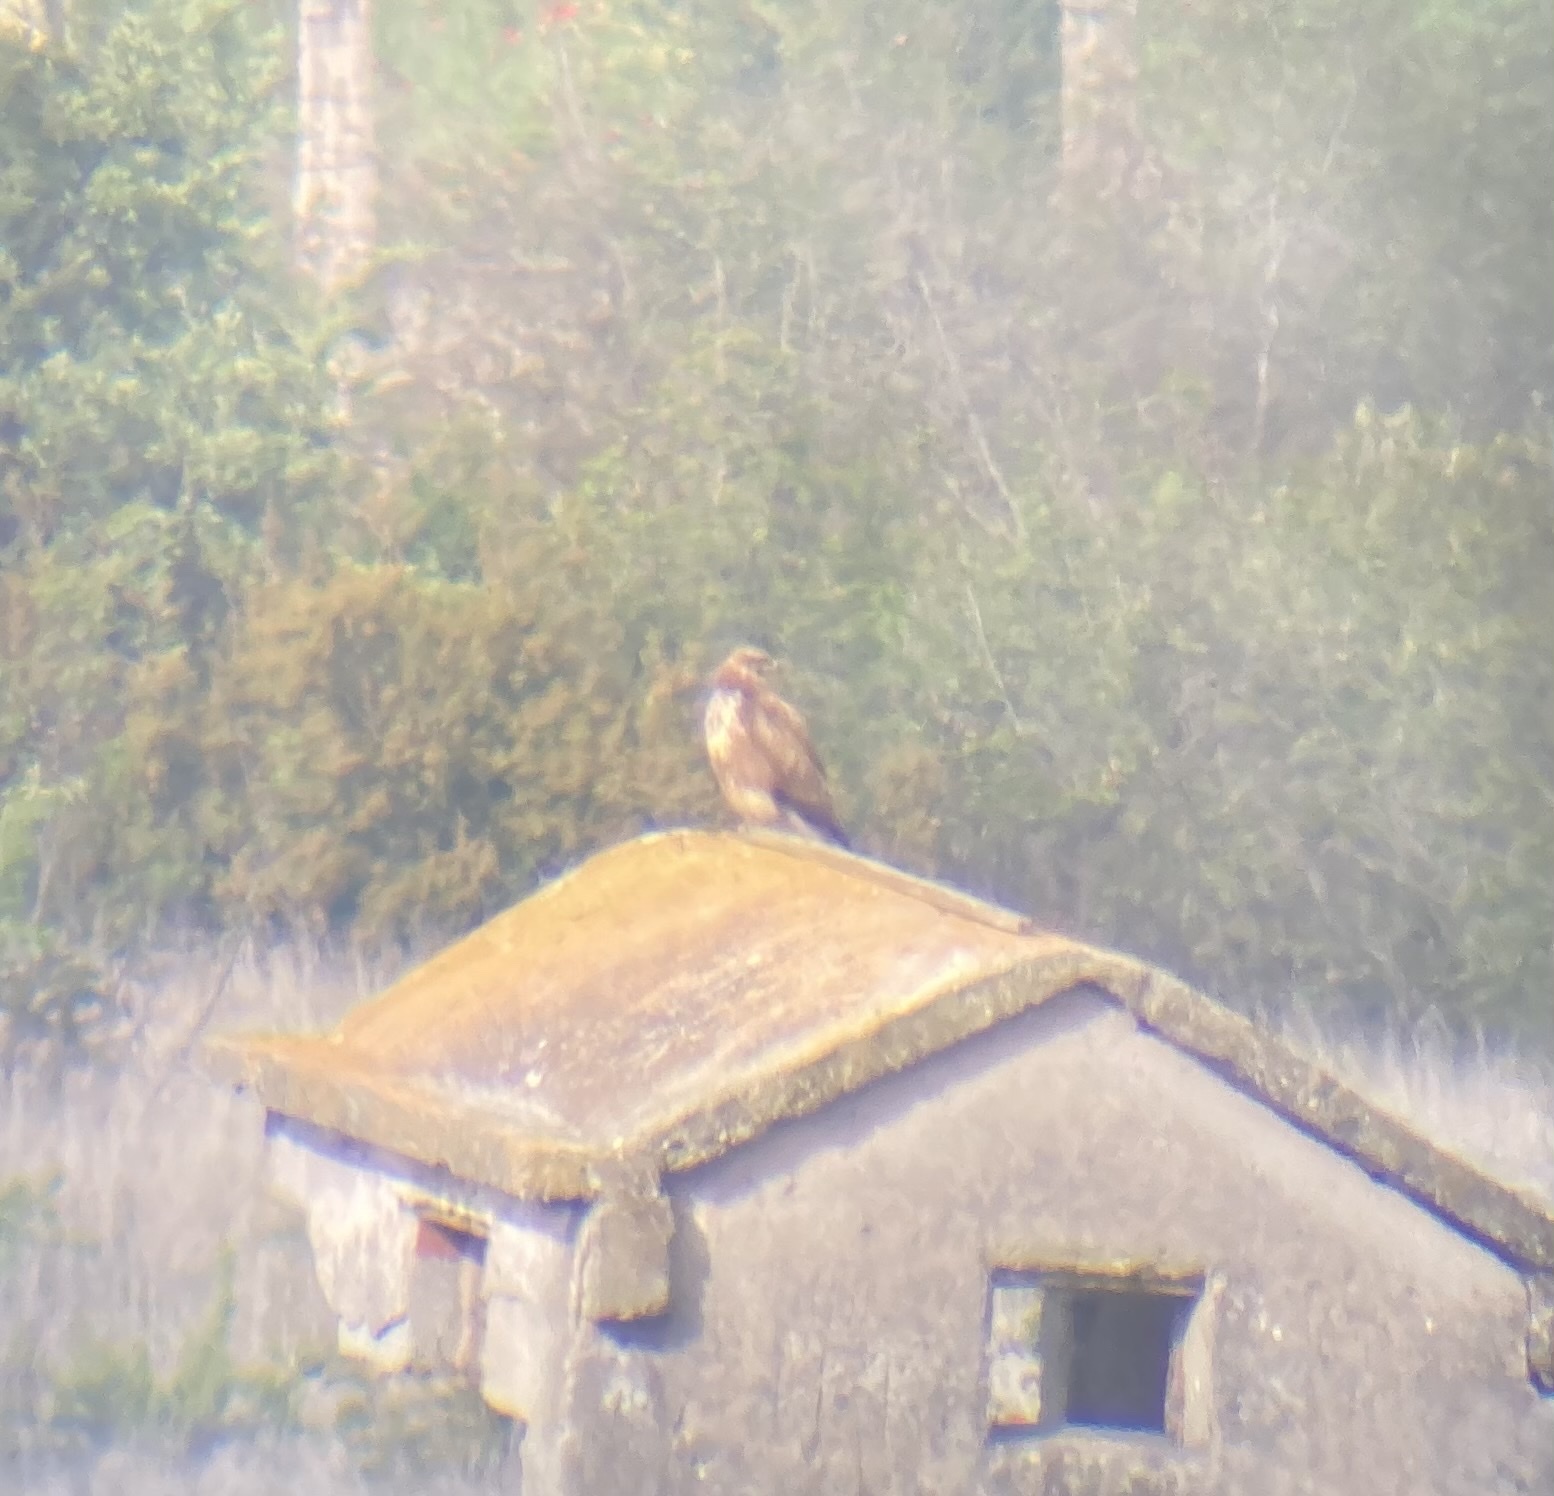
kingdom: Animalia
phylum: Chordata
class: Aves
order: Accipitriformes
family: Accipitridae
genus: Buteo
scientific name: Buteo buteo
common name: Common buzzard
